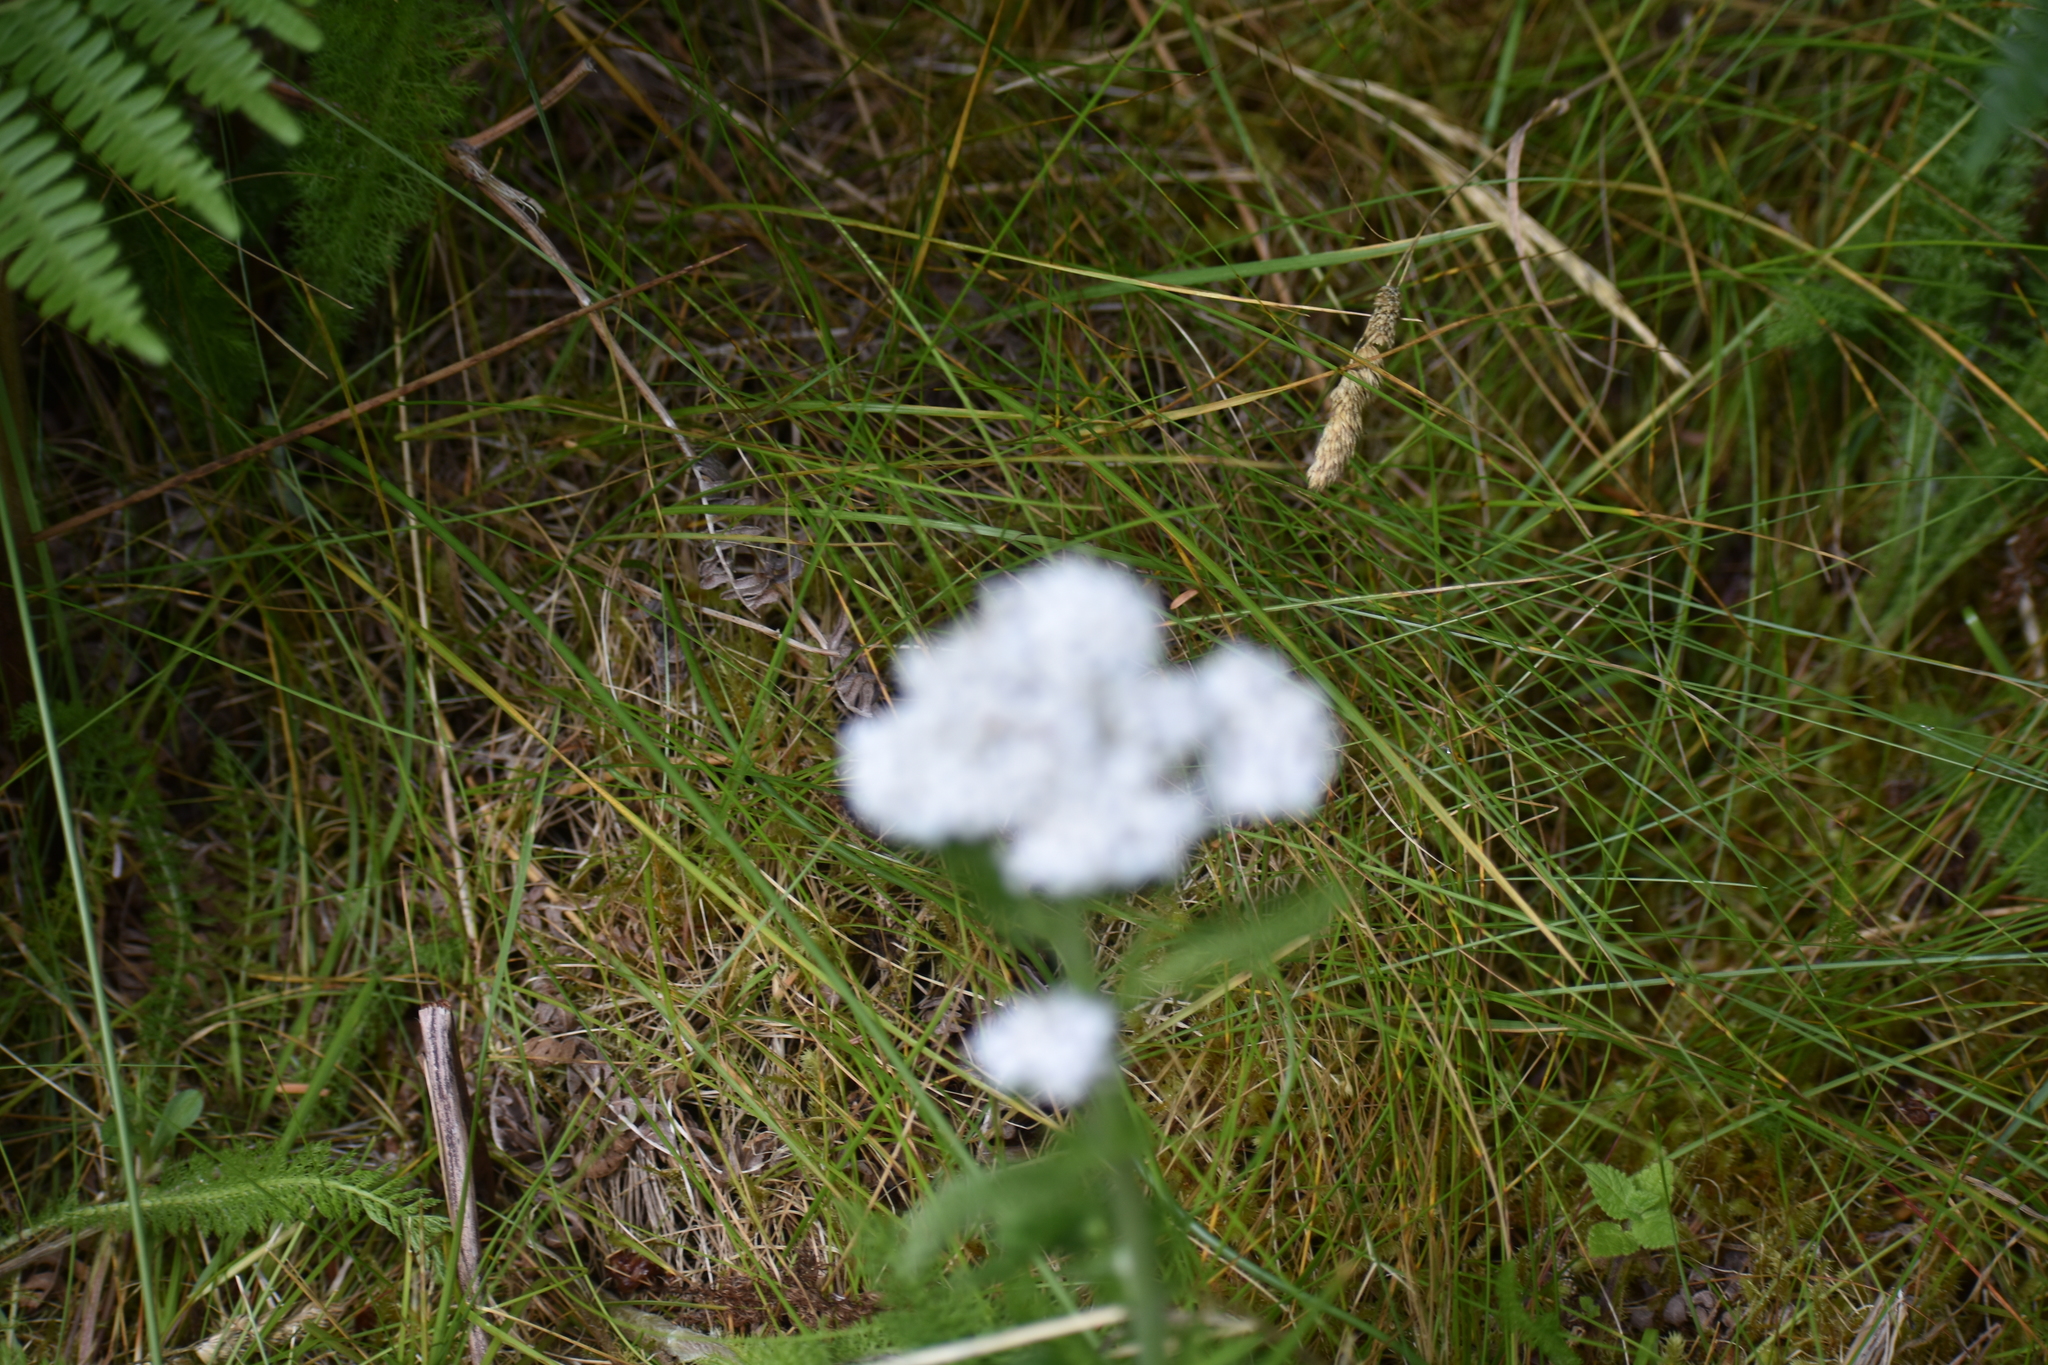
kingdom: Plantae
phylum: Tracheophyta
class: Magnoliopsida
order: Asterales
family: Asteraceae
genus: Achillea
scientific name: Achillea millefolium
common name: Yarrow
